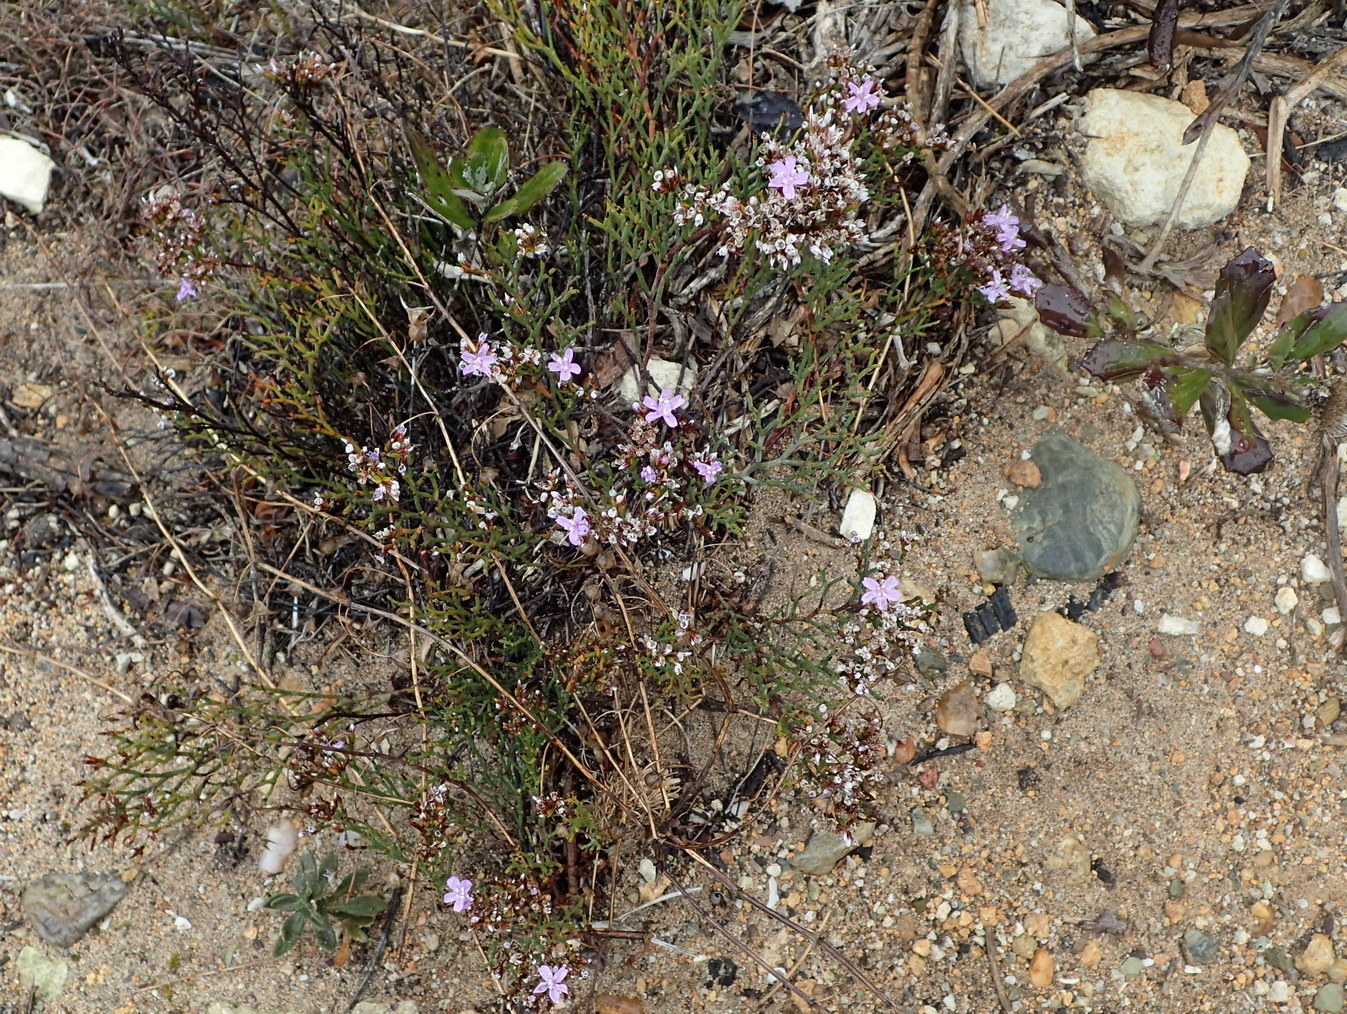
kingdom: Plantae
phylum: Tracheophyta
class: Magnoliopsida
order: Caryophyllales
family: Plumbaginaceae
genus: Limonium
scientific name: Limonium scabrum
